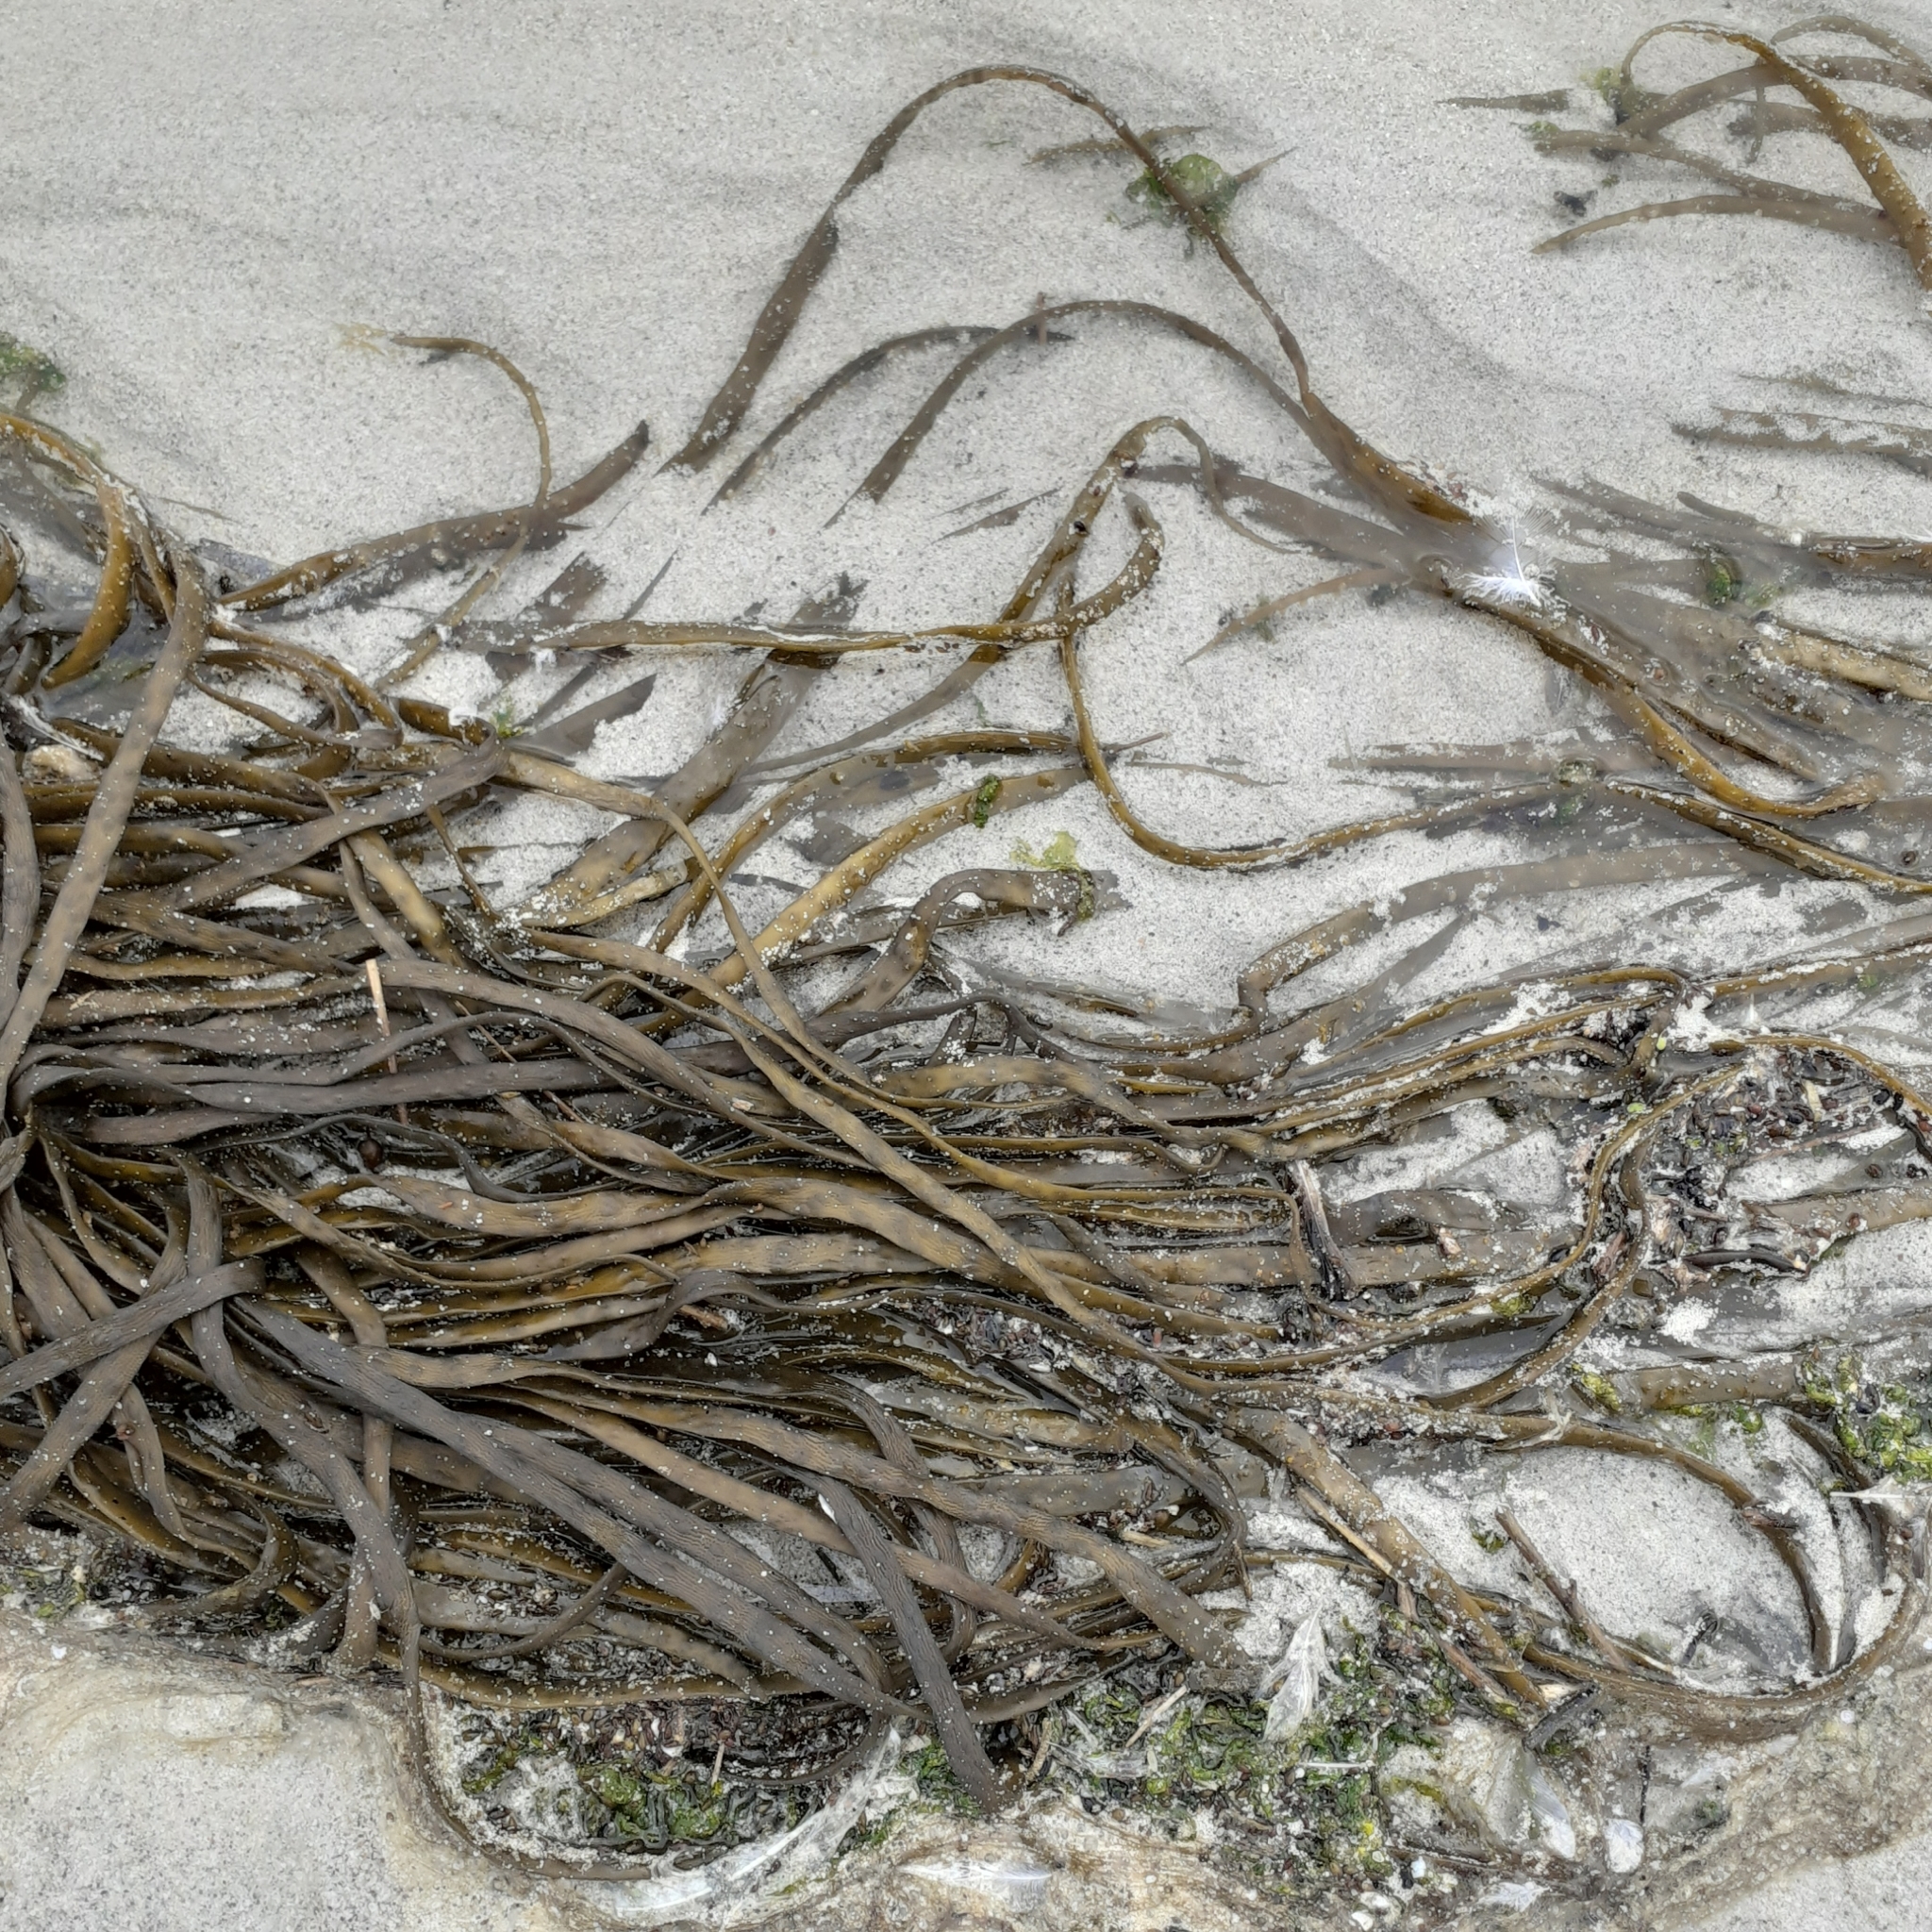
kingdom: Chromista
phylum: Ochrophyta
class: Phaeophyceae
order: Fucales
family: Himanthaliaceae
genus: Himanthalia
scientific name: Himanthalia elongata
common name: Sea-thong
